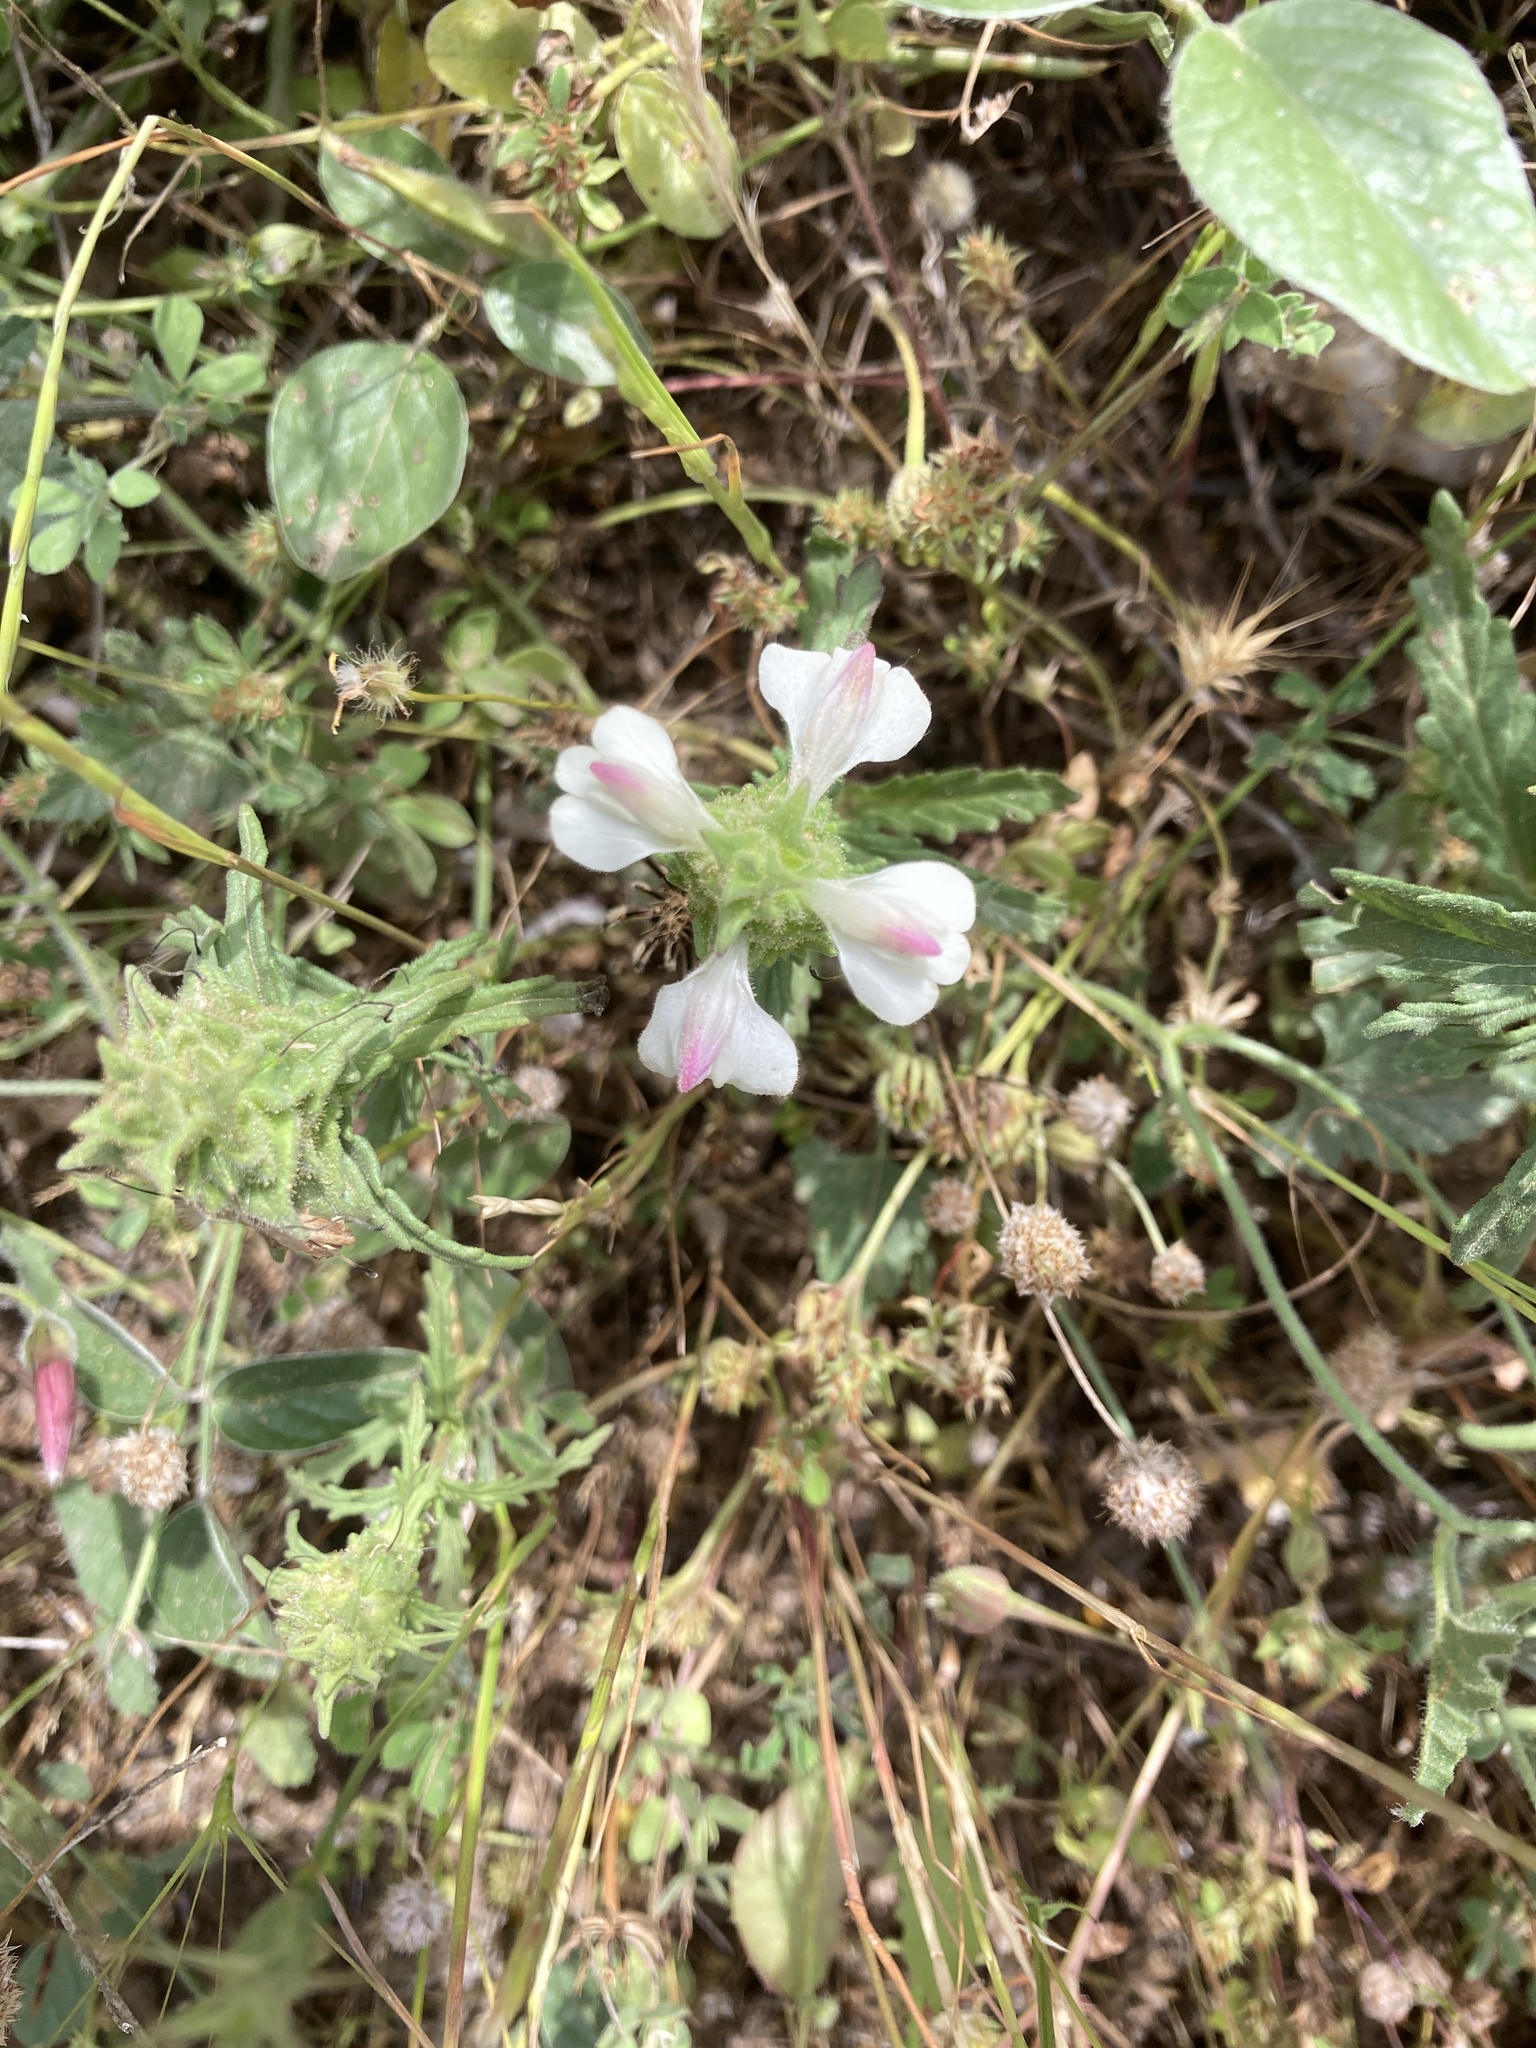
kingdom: Plantae
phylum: Tracheophyta
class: Magnoliopsida
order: Lamiales
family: Orobanchaceae
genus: Bellardia
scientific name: Bellardia trixago
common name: Mediterranean lineseed
